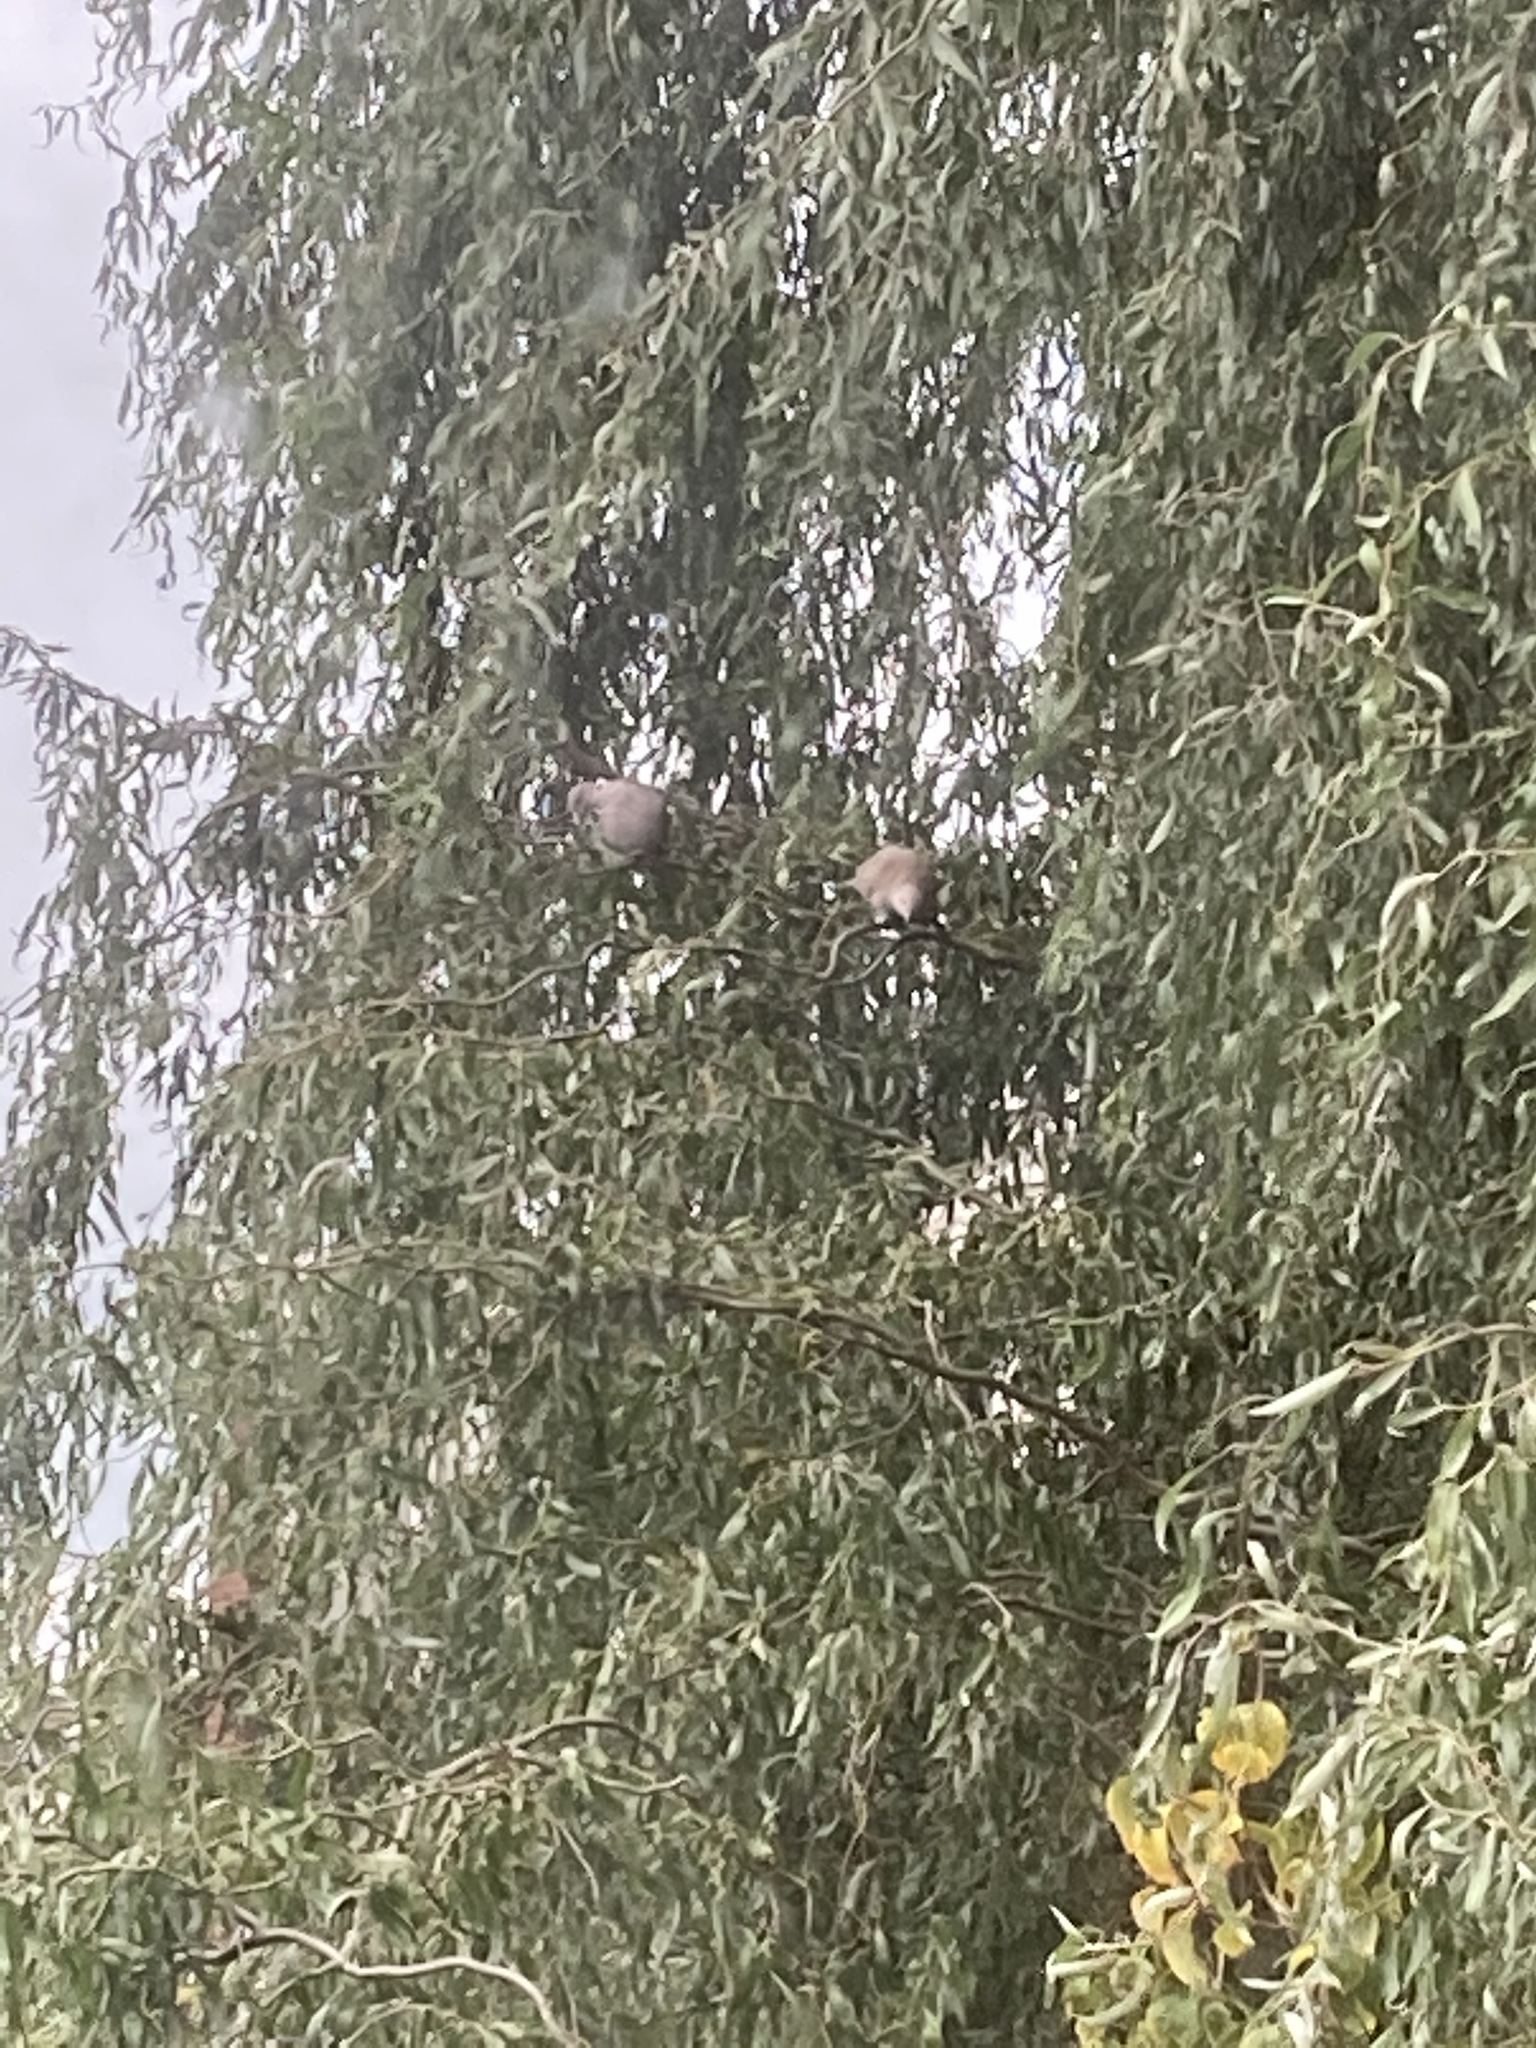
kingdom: Animalia
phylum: Chordata
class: Aves
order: Columbiformes
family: Columbidae
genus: Streptopelia
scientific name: Streptopelia decaocto
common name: Eurasian collared dove
